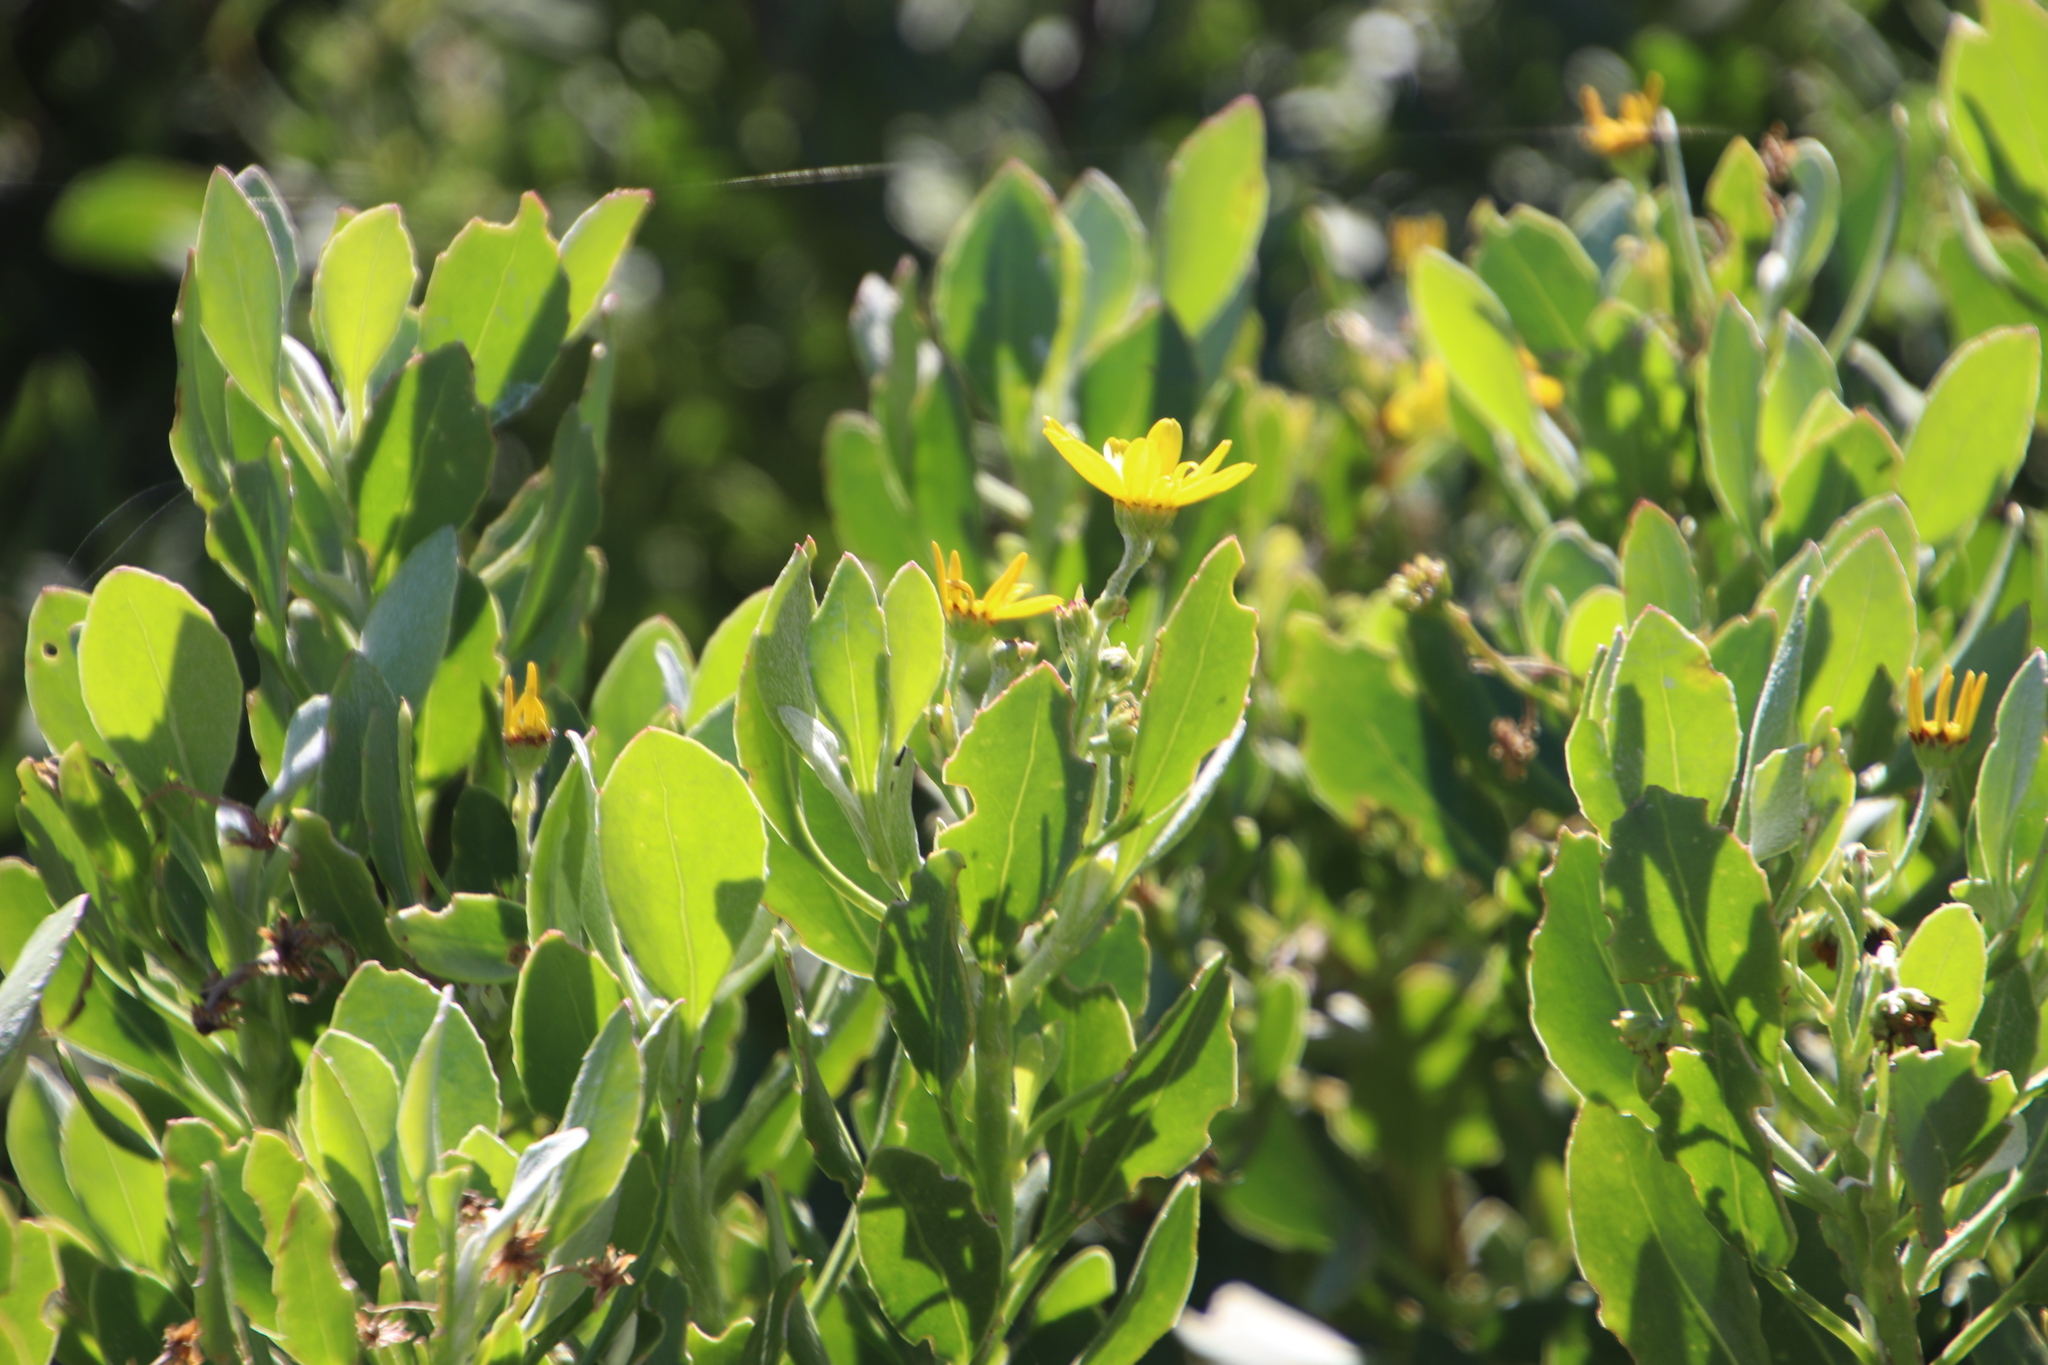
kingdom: Plantae
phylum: Tracheophyta
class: Magnoliopsida
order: Asterales
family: Asteraceae
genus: Osteospermum
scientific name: Osteospermum moniliferum
